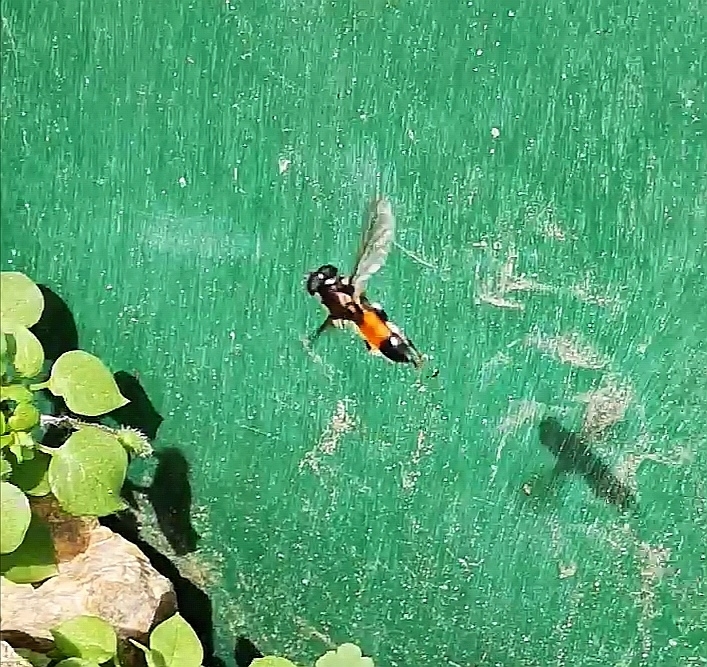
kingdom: Animalia
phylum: Arthropoda
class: Insecta
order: Diptera
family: Syrphidae
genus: Xylota
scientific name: Xylota segnis
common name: Brown-toed forest fly
